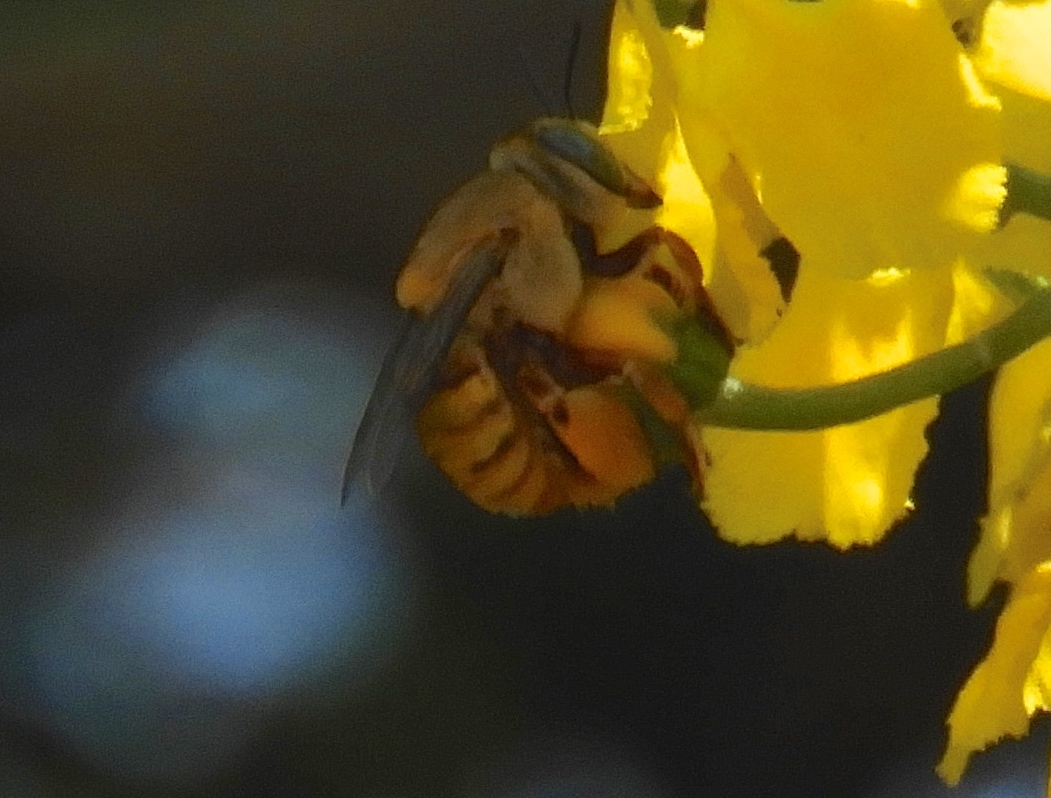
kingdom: Animalia
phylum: Arthropoda
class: Insecta
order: Hymenoptera
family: Apidae
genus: Centris
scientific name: Centris aethyctera
